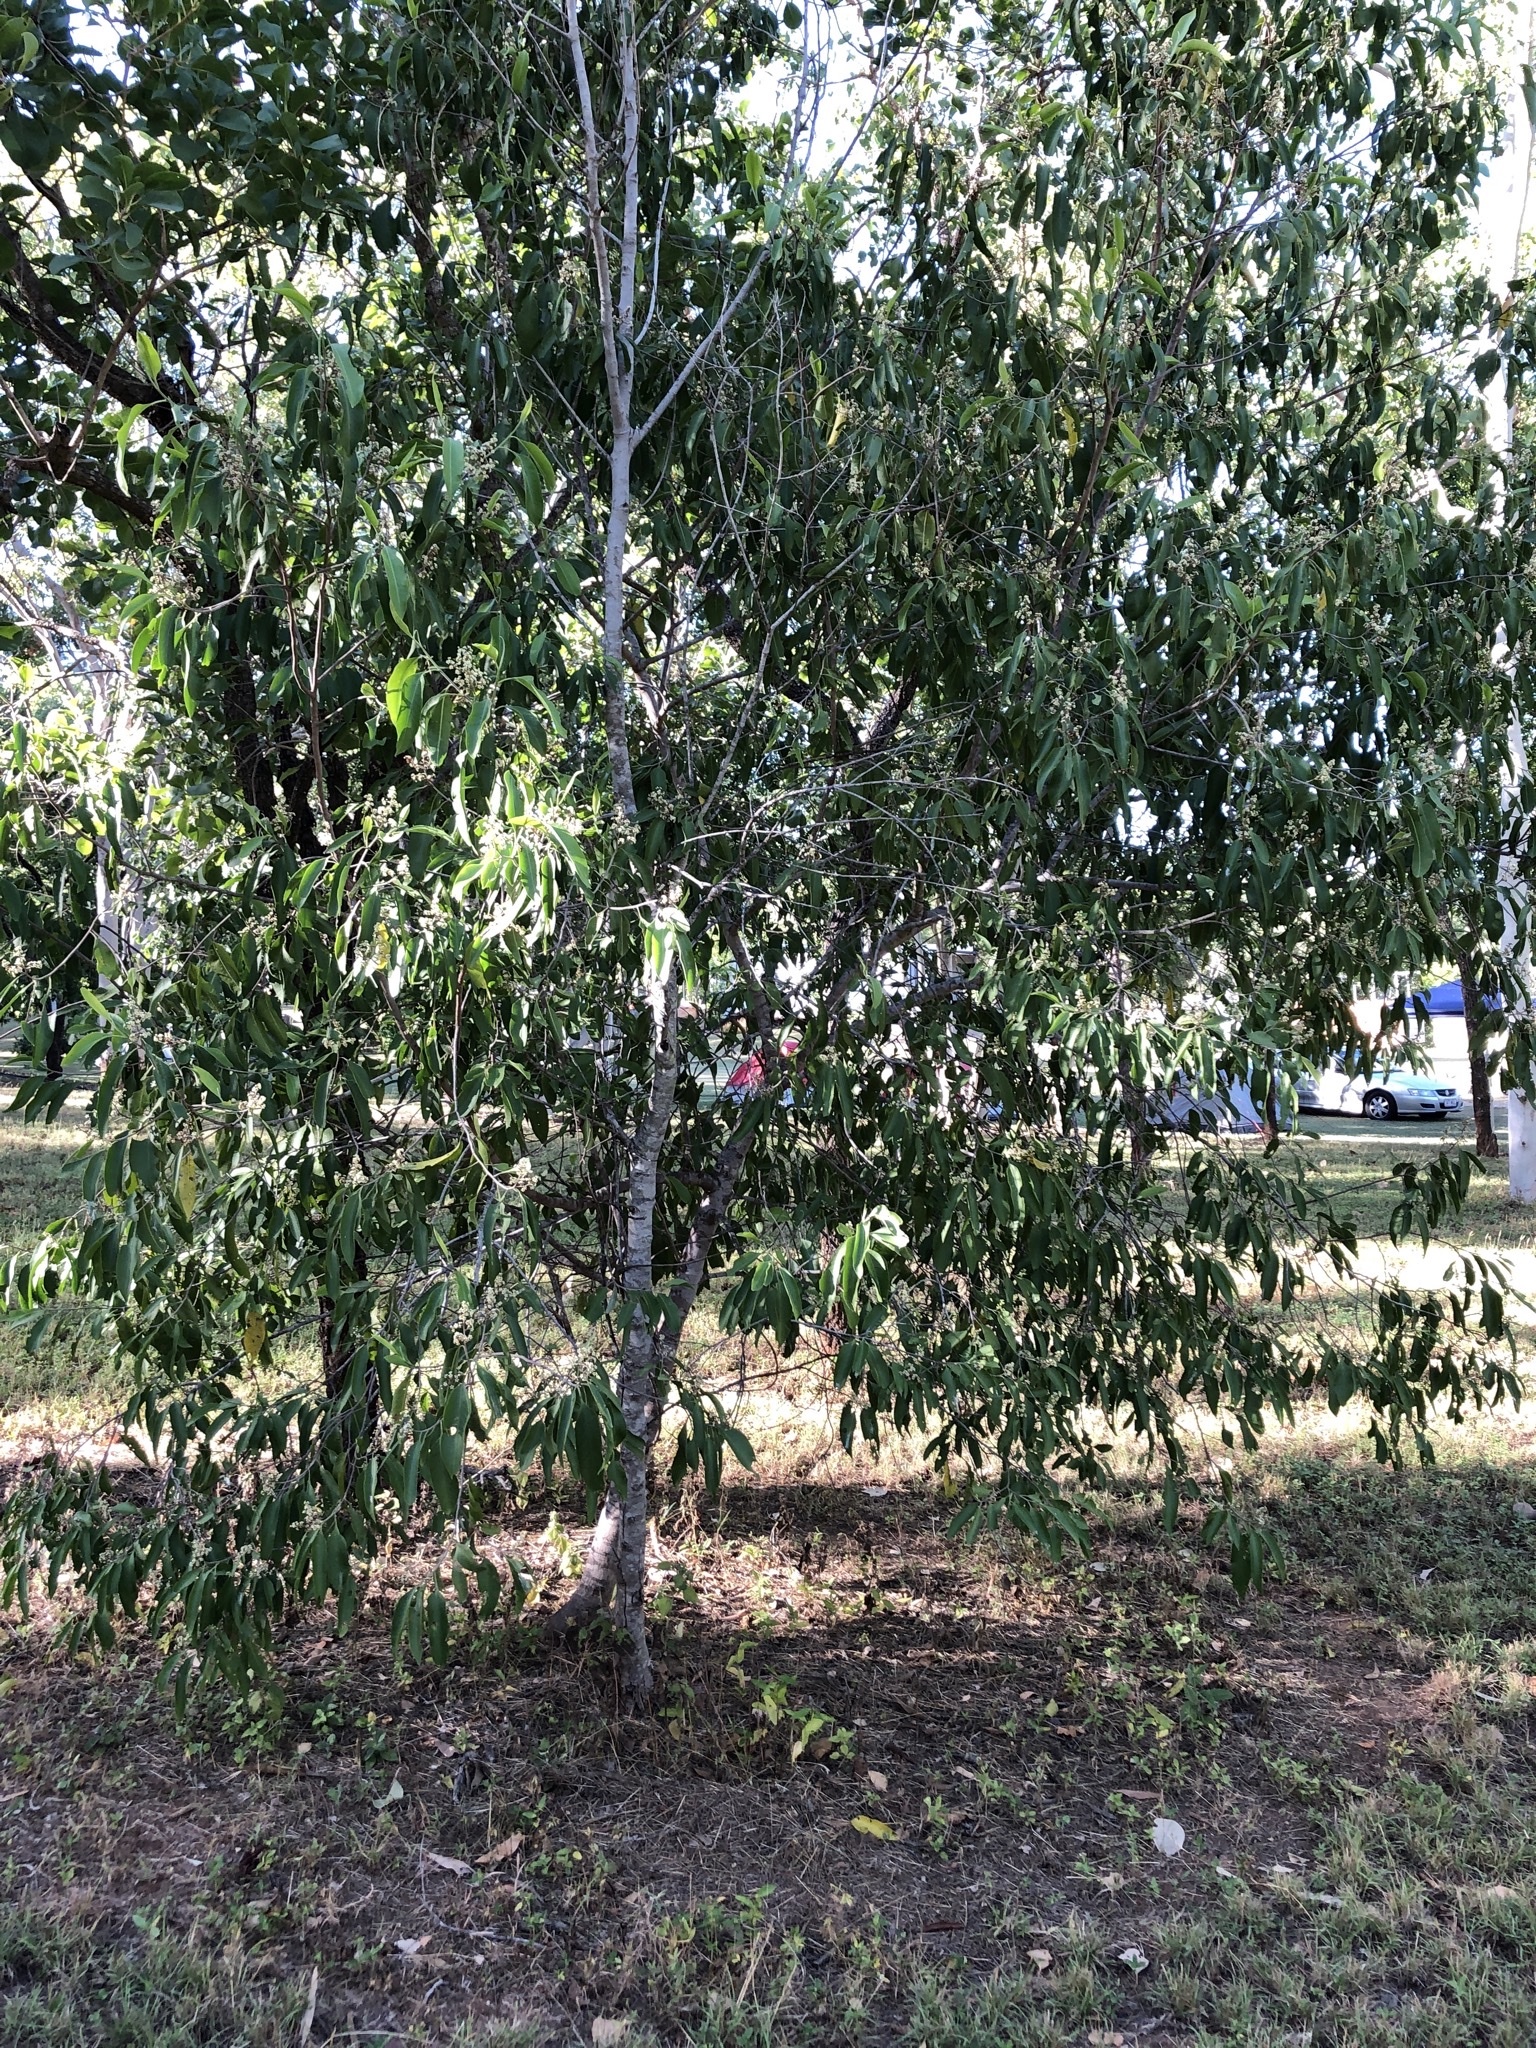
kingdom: Plantae
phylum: Tracheophyta
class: Magnoliopsida
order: Sapindales
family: Rutaceae
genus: Geijera
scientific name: Geijera salicifolia
